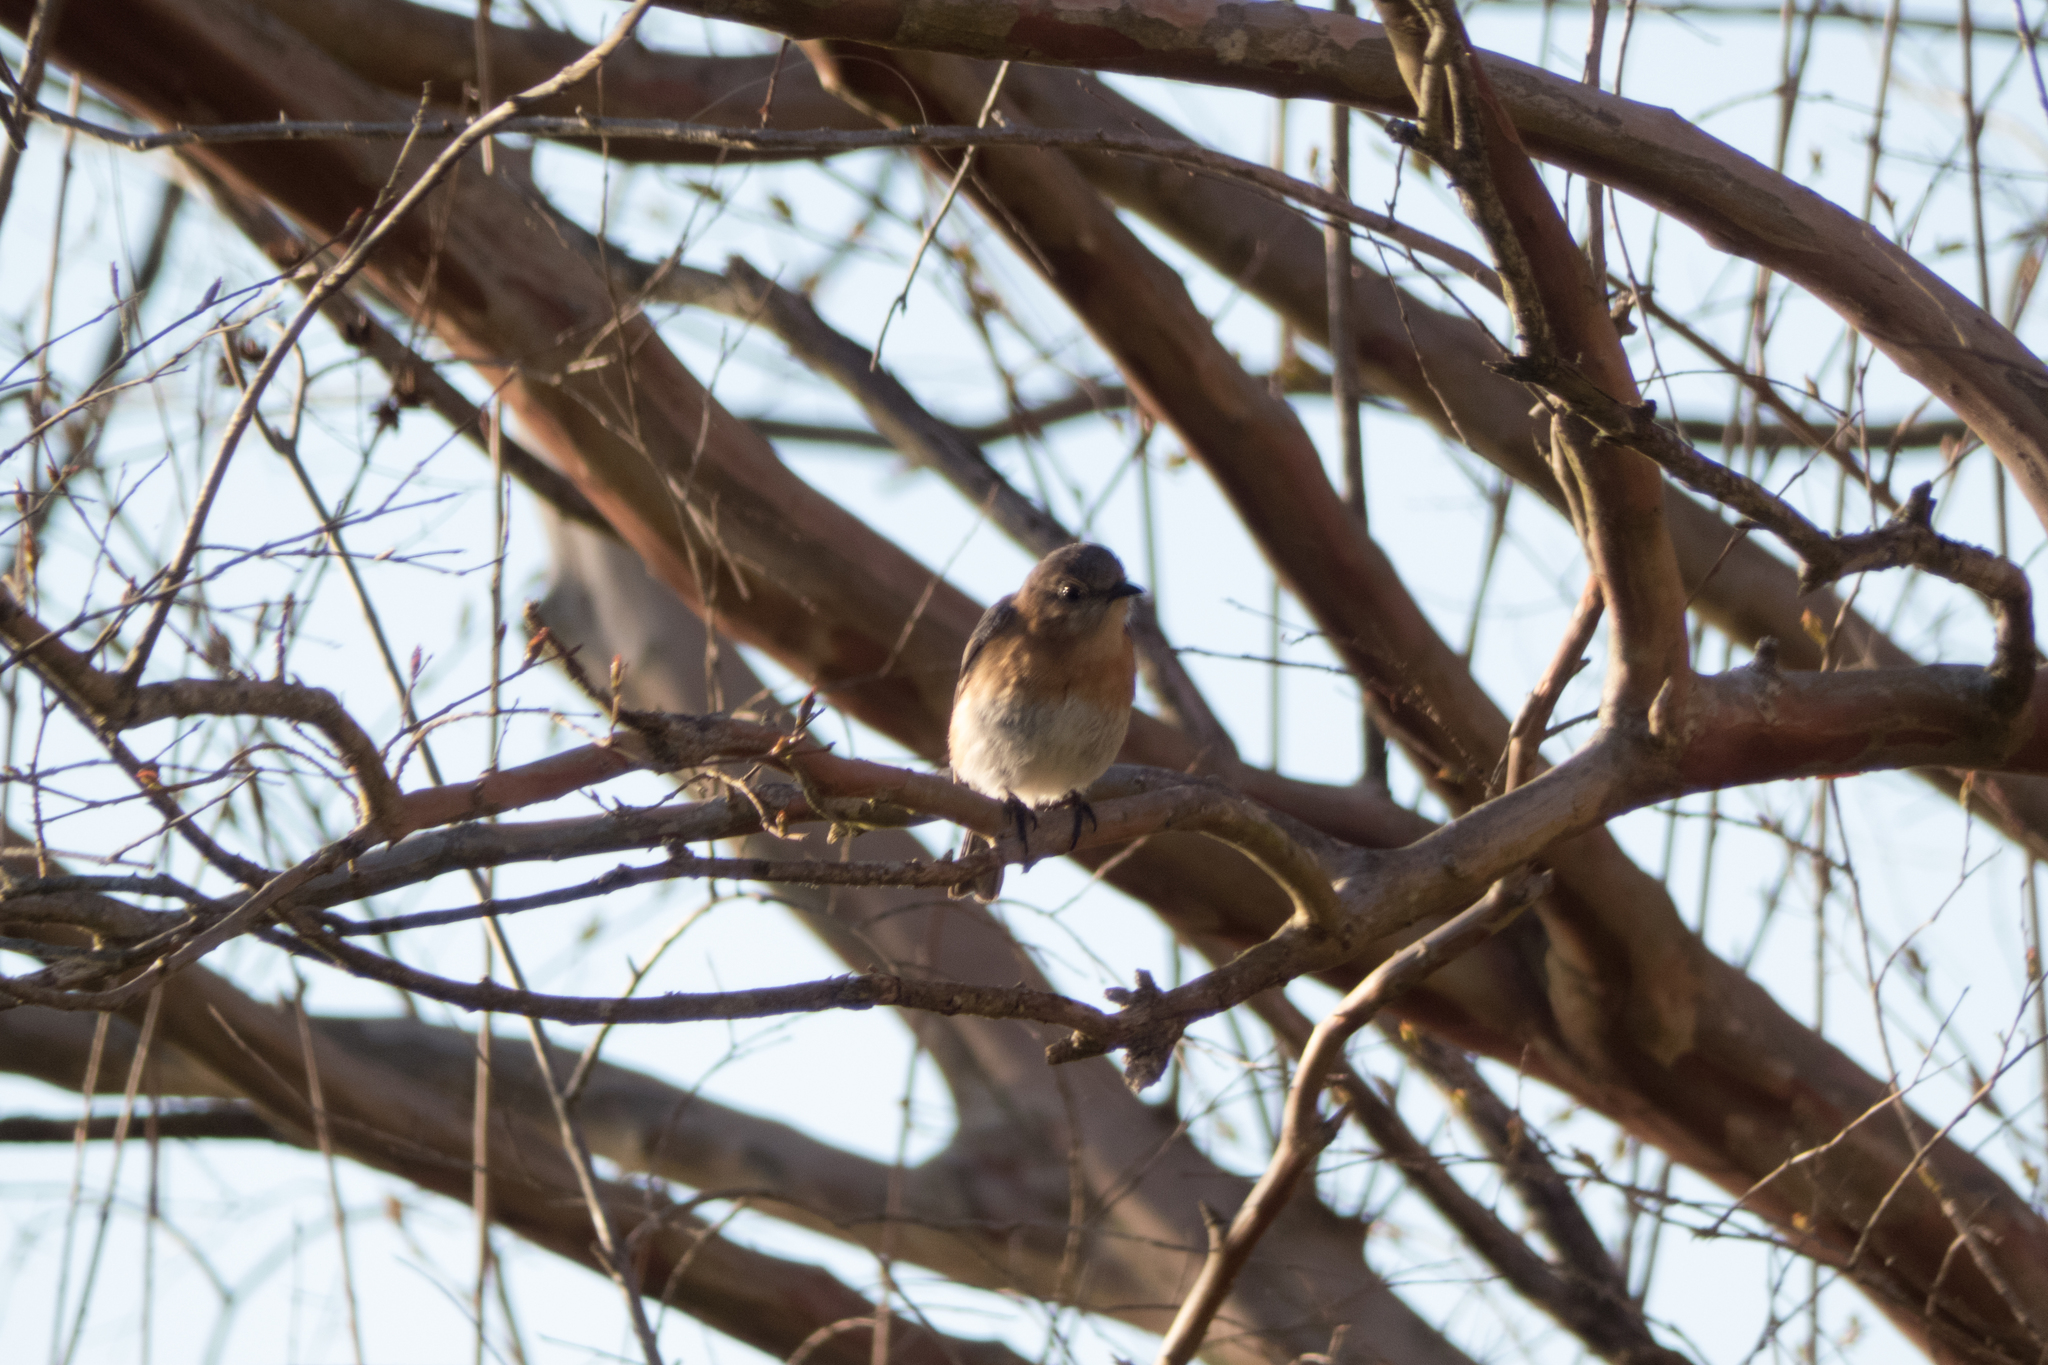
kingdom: Animalia
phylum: Chordata
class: Aves
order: Passeriformes
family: Turdidae
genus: Sialia
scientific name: Sialia sialis
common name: Eastern bluebird
